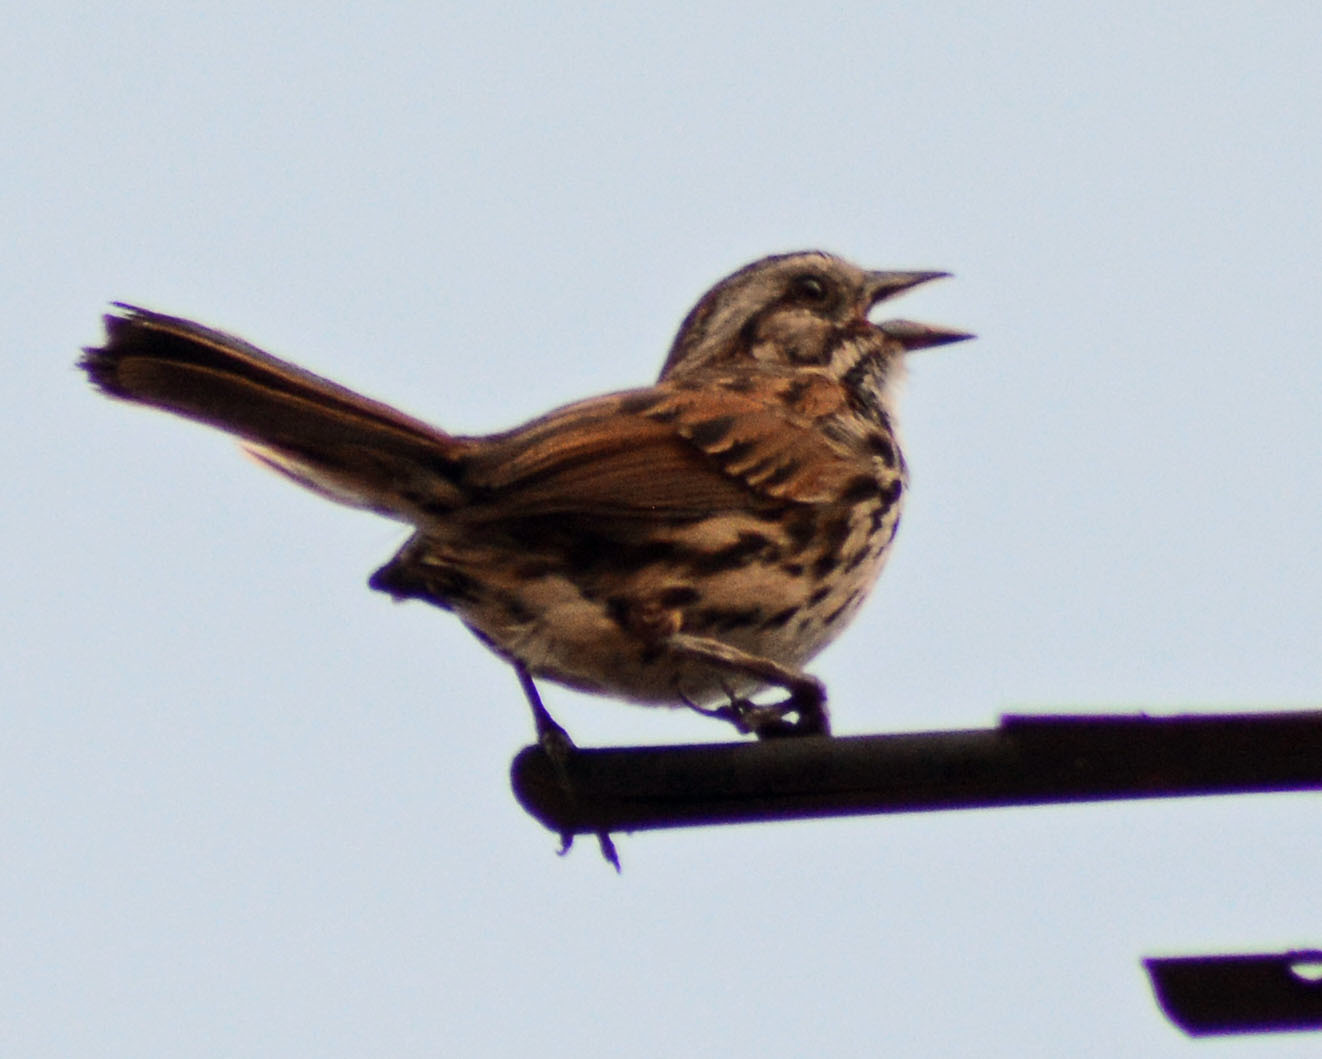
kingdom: Animalia
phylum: Chordata
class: Aves
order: Passeriformes
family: Passerellidae
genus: Melospiza
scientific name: Melospiza melodia
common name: Song sparrow
